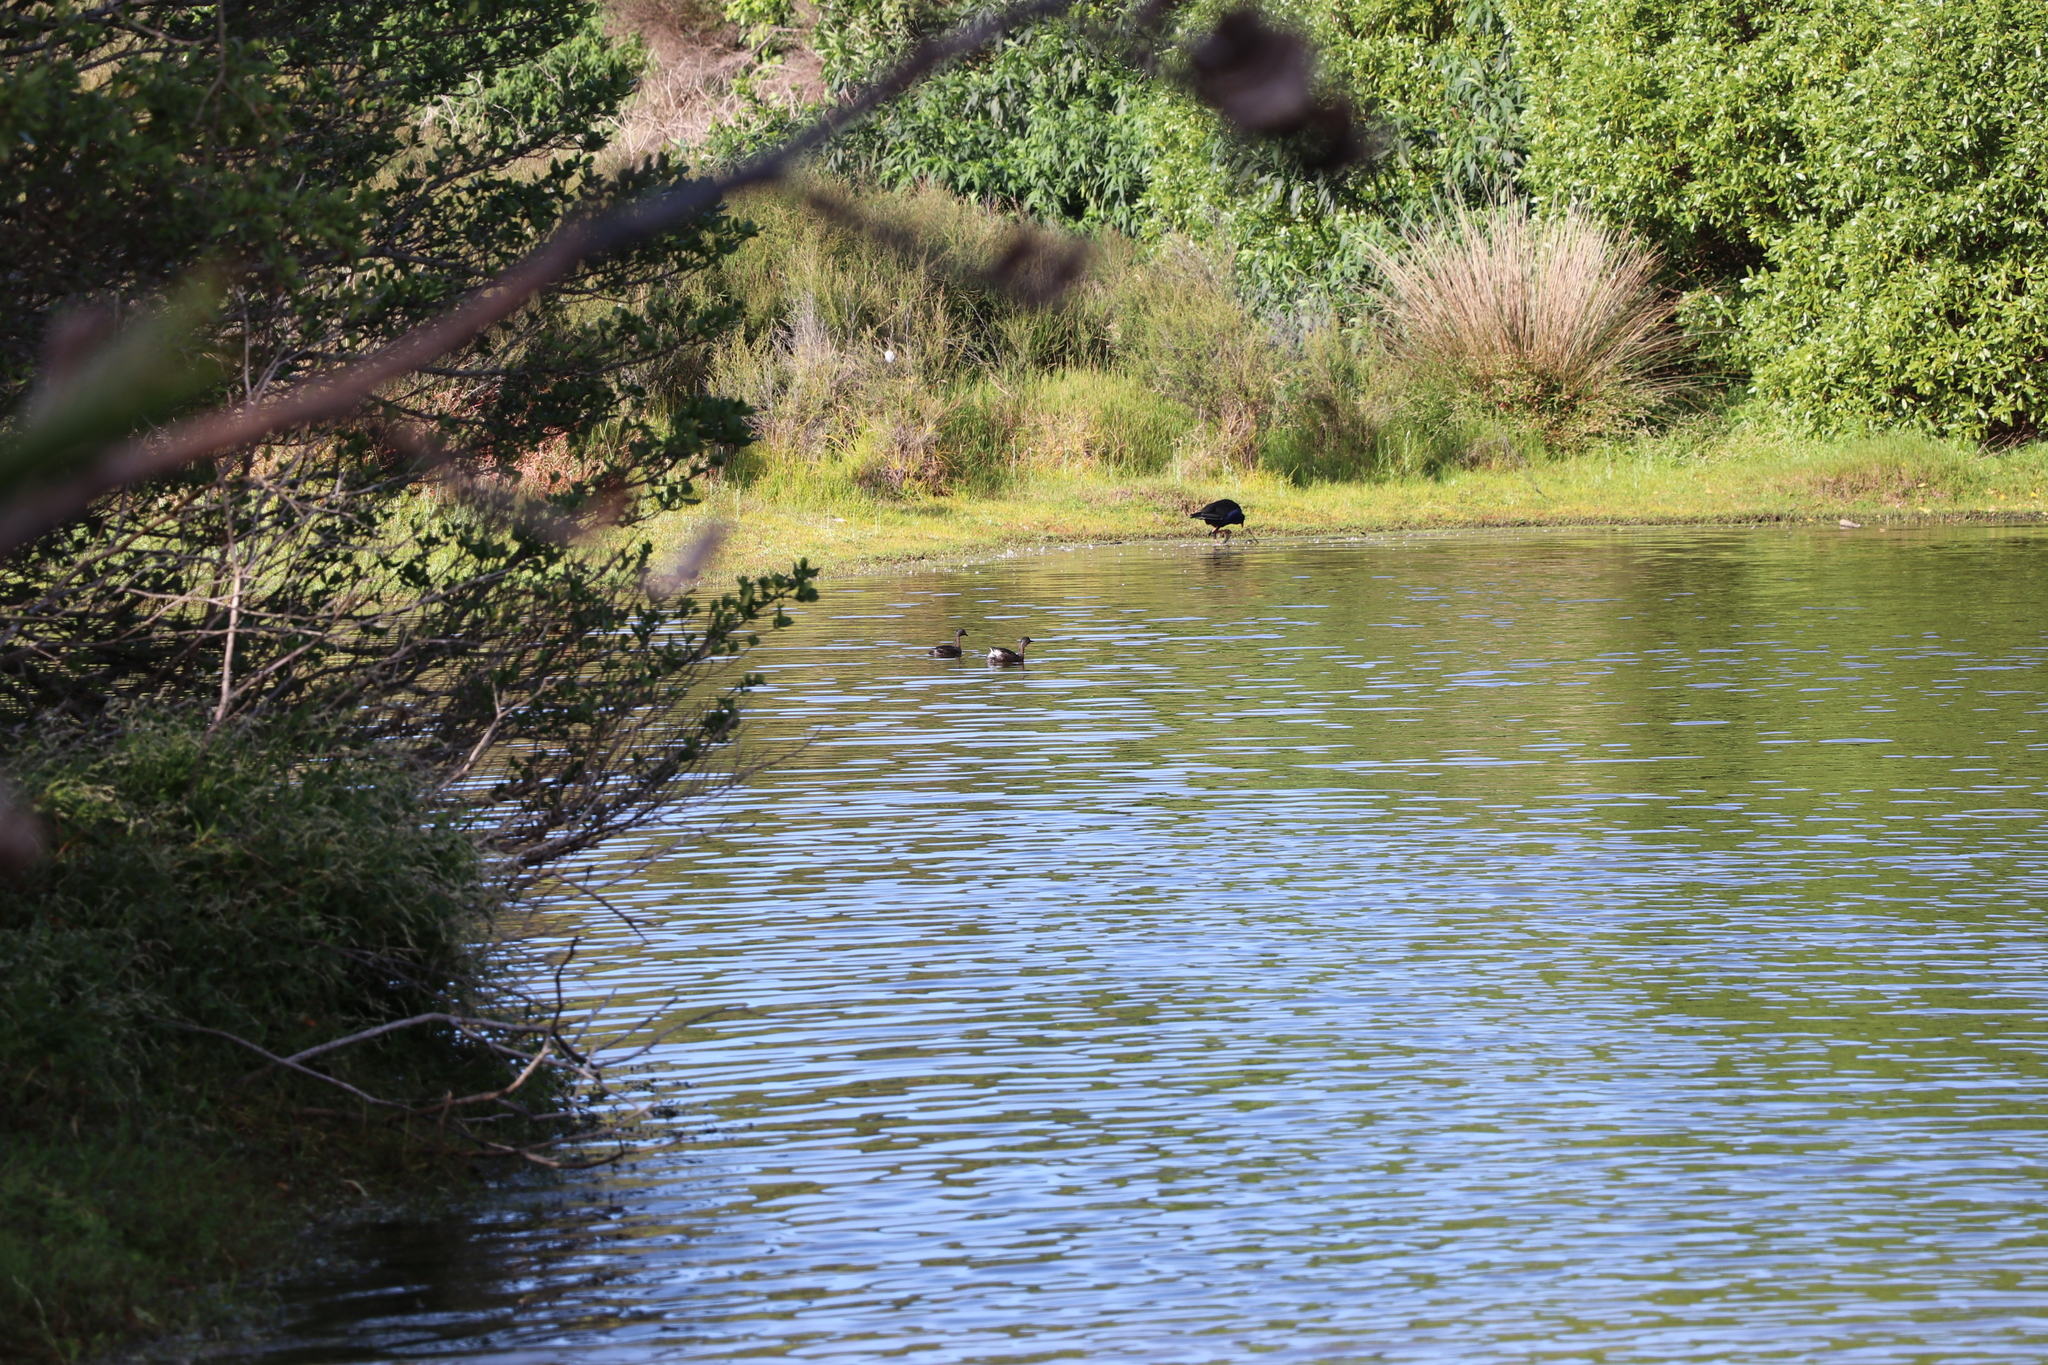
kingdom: Animalia
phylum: Chordata
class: Aves
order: Podicipediformes
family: Podicipedidae
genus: Poliocephalus
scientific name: Poliocephalus rufopectus
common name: New zealand grebe
